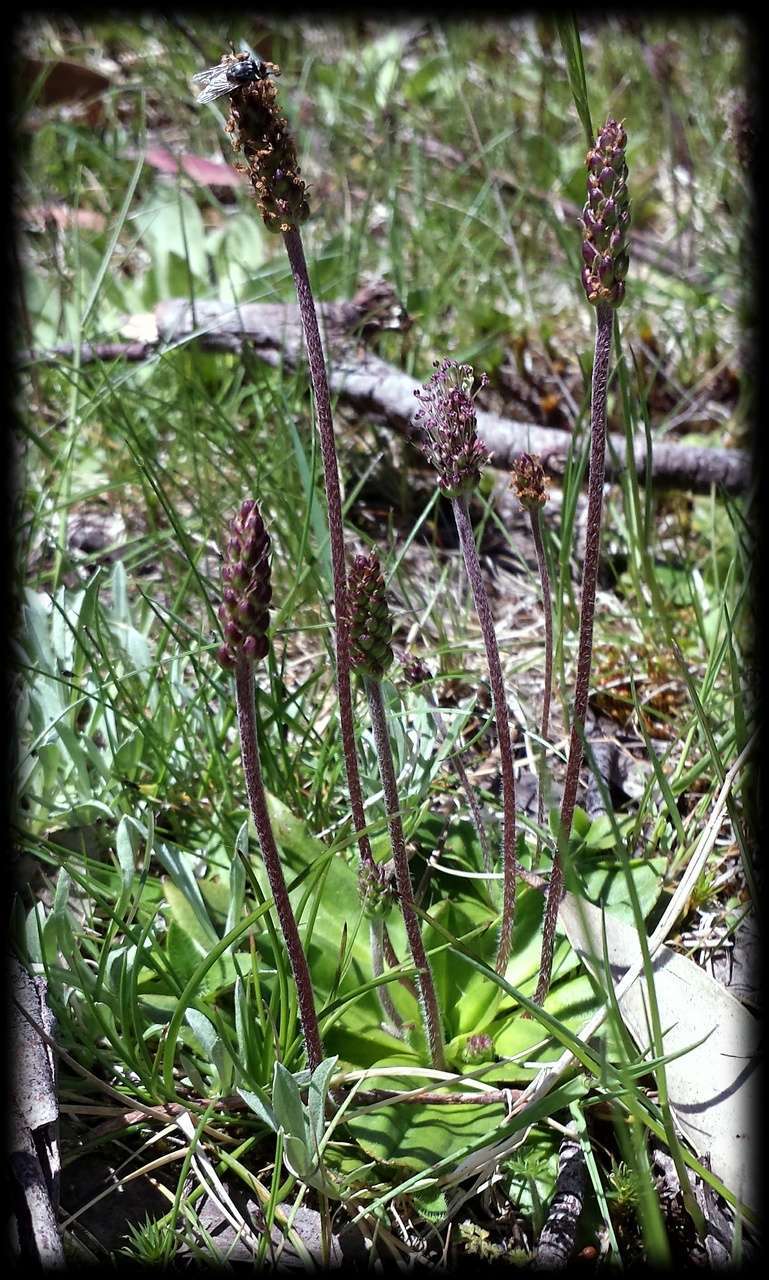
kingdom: Plantae
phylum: Tracheophyta
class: Magnoliopsida
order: Lamiales
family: Plantaginaceae
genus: Plantago
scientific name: Plantago alpestris
